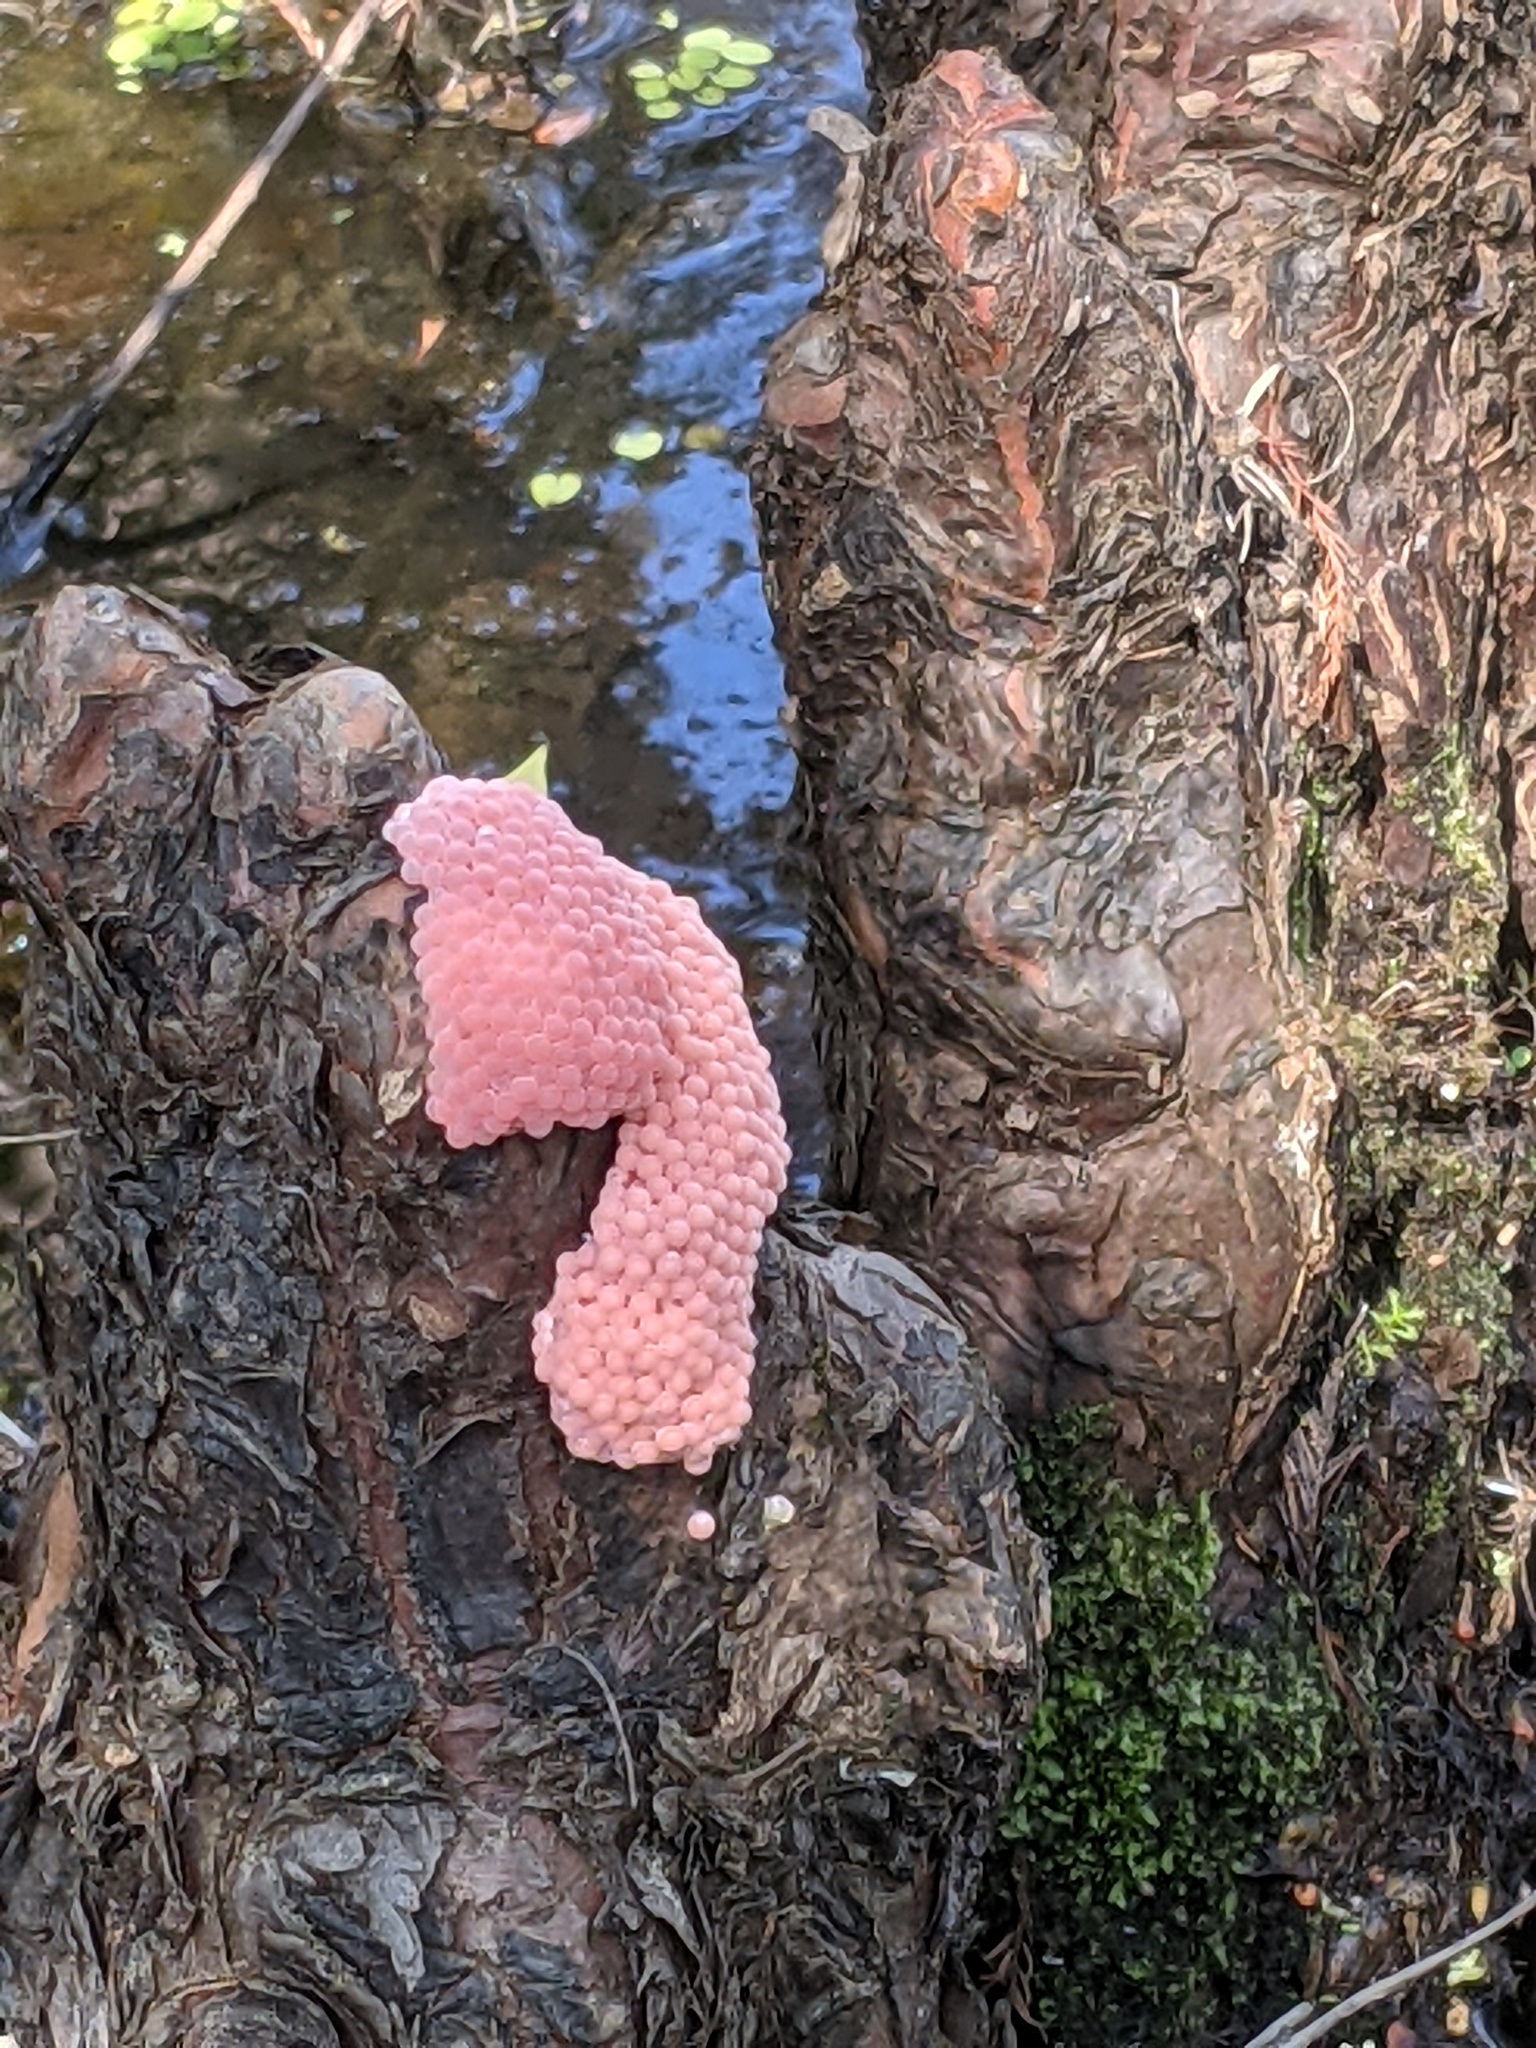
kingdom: Animalia
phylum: Mollusca
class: Gastropoda
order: Architaenioglossa
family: Ampullariidae
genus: Pomacea
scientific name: Pomacea maculata
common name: Giant applesnail
